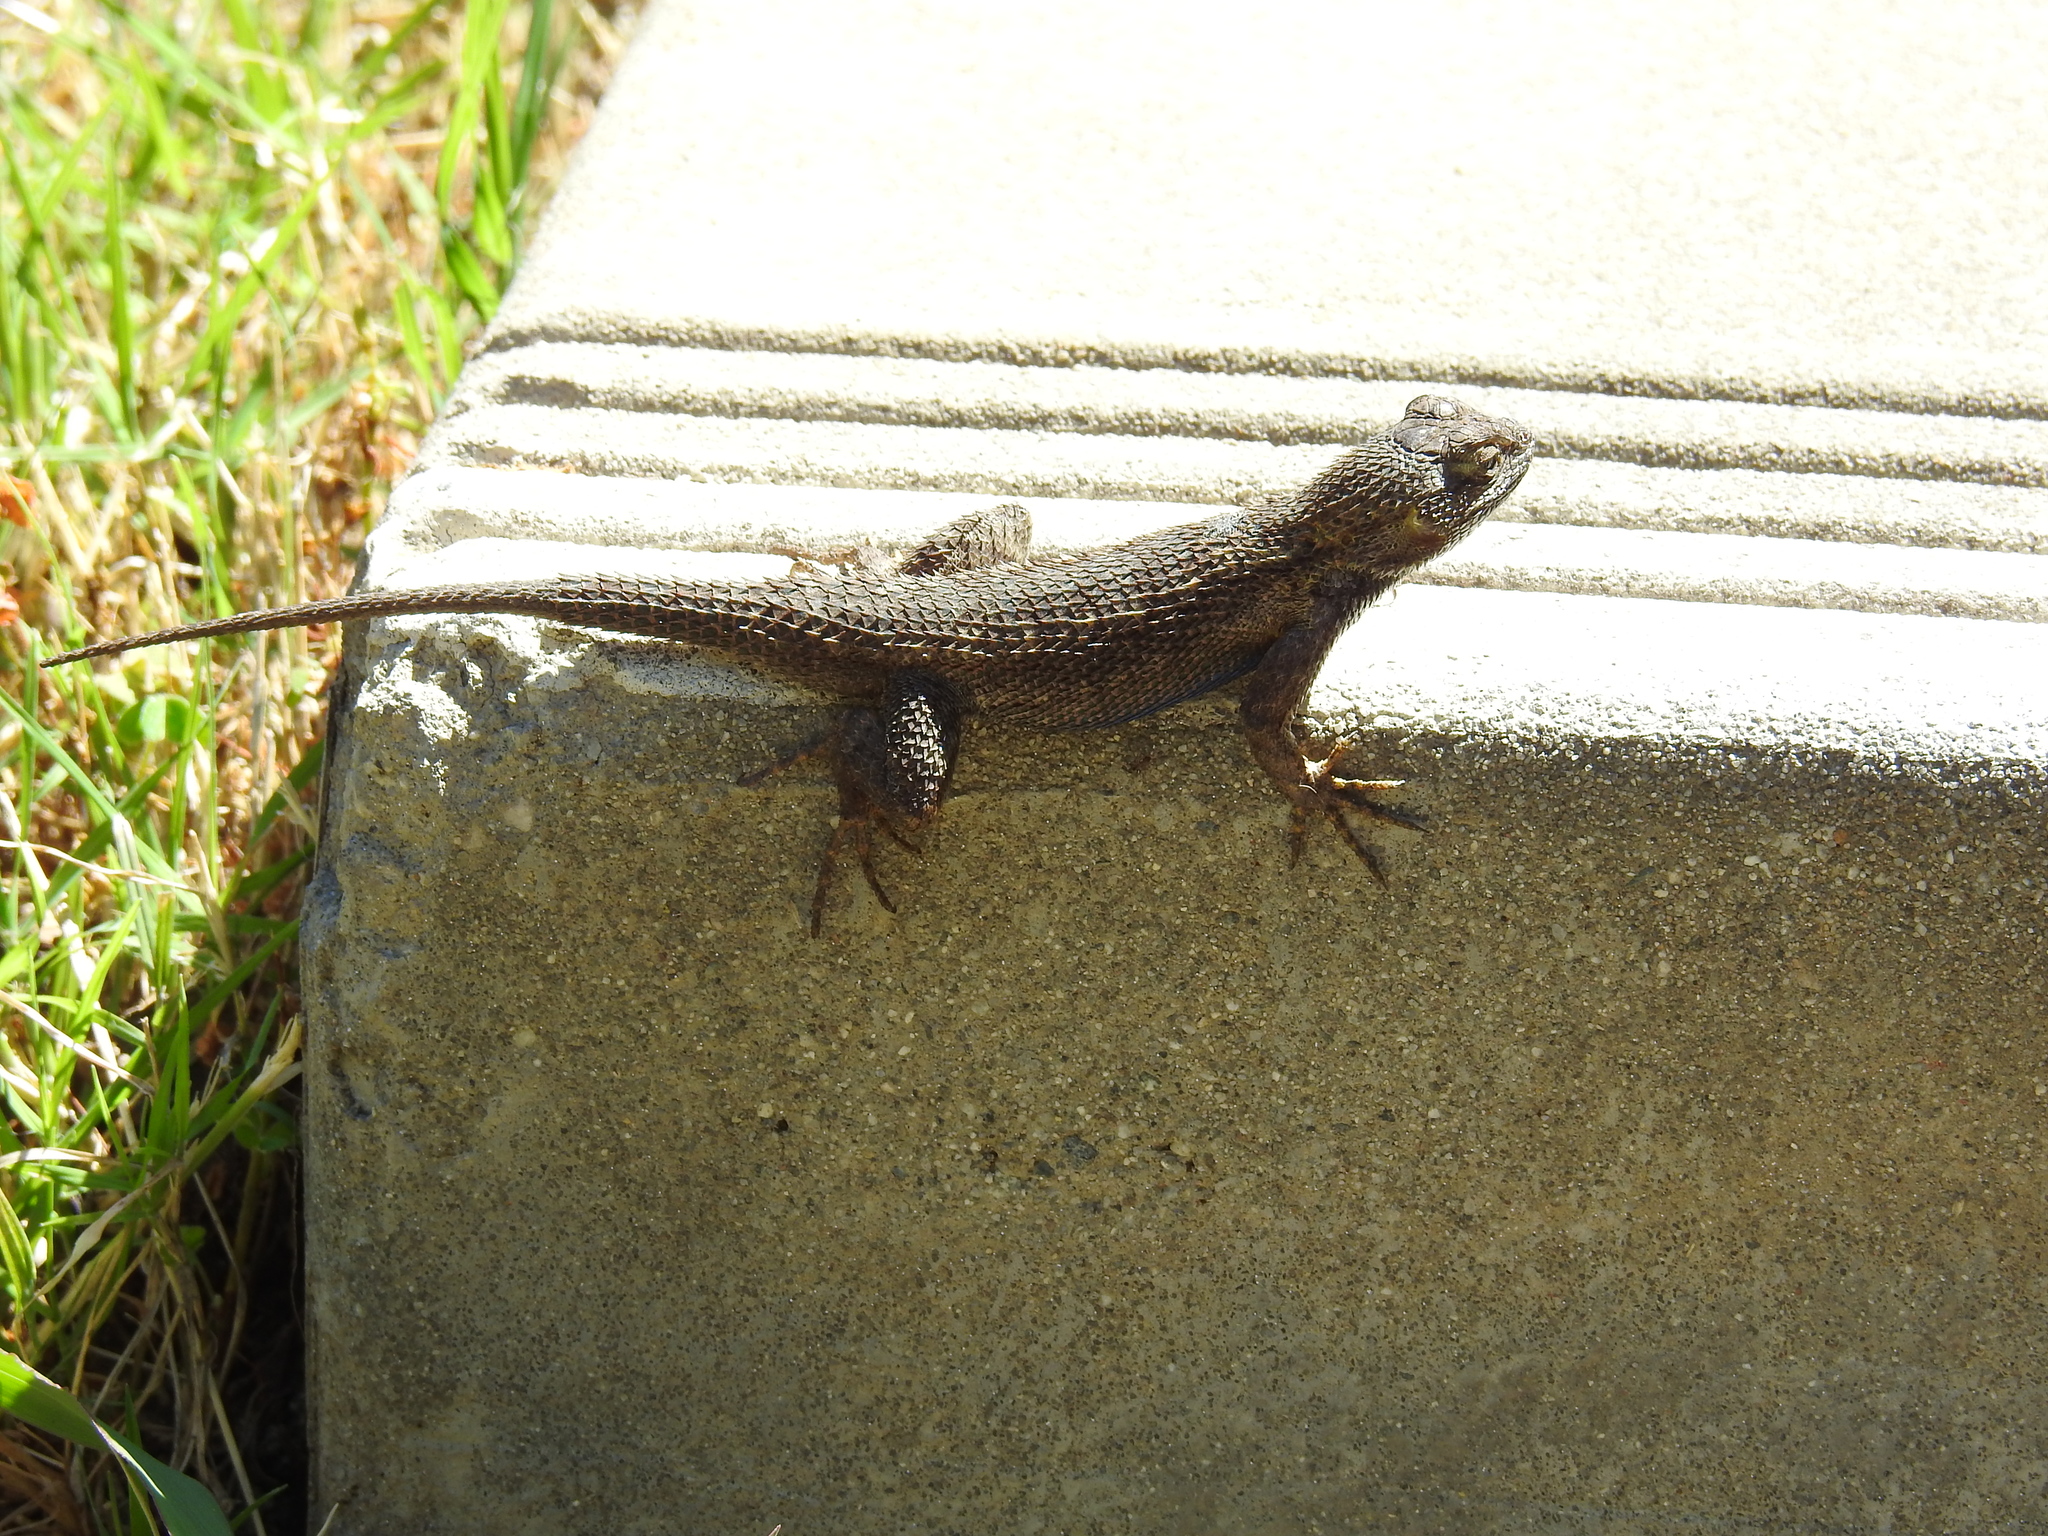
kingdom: Animalia
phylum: Chordata
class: Squamata
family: Phrynosomatidae
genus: Sceloporus
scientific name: Sceloporus occidentalis
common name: Western fence lizard
